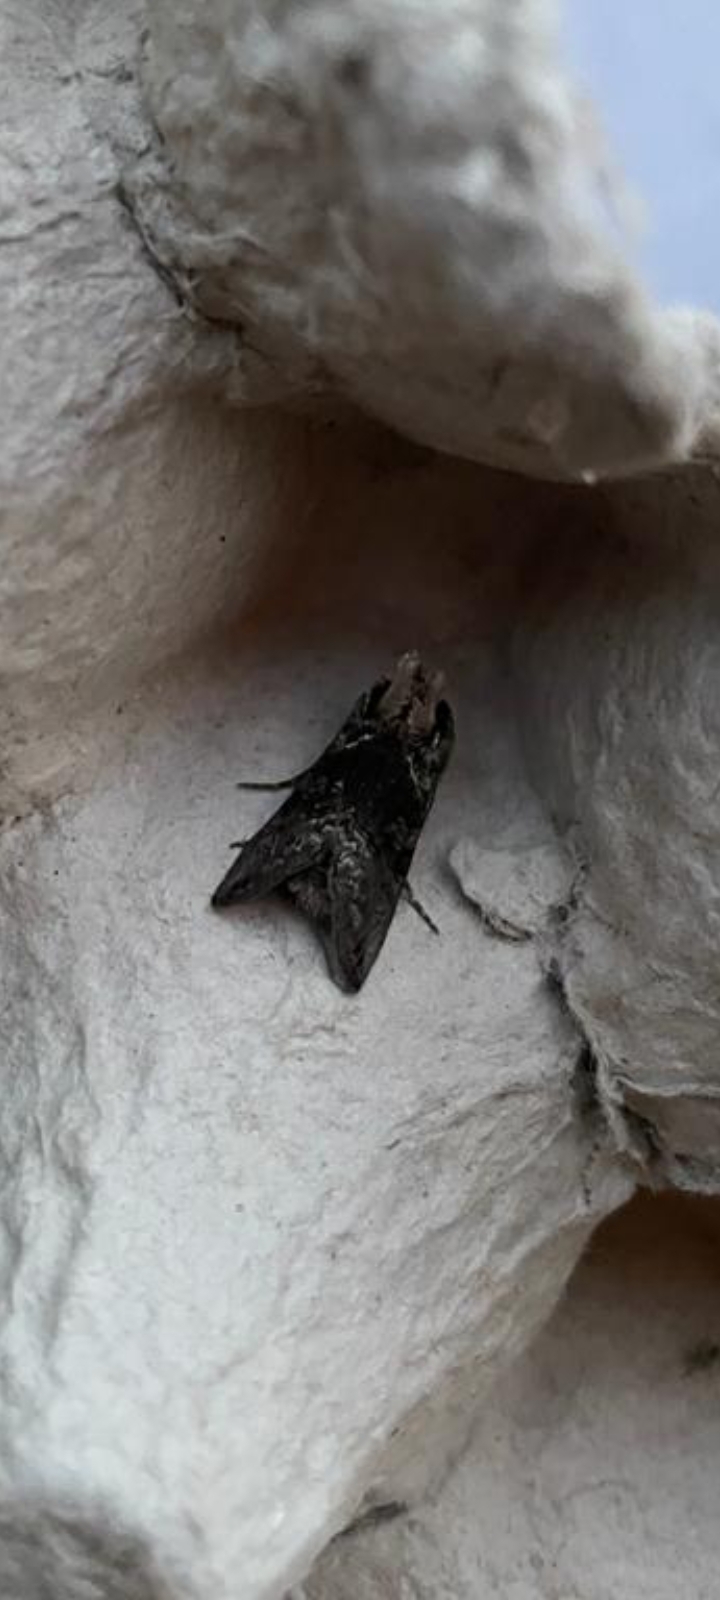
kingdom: Animalia
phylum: Arthropoda
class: Insecta
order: Lepidoptera
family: Noctuidae
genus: Abrostola
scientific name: Abrostola tripartita
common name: Spectacle
